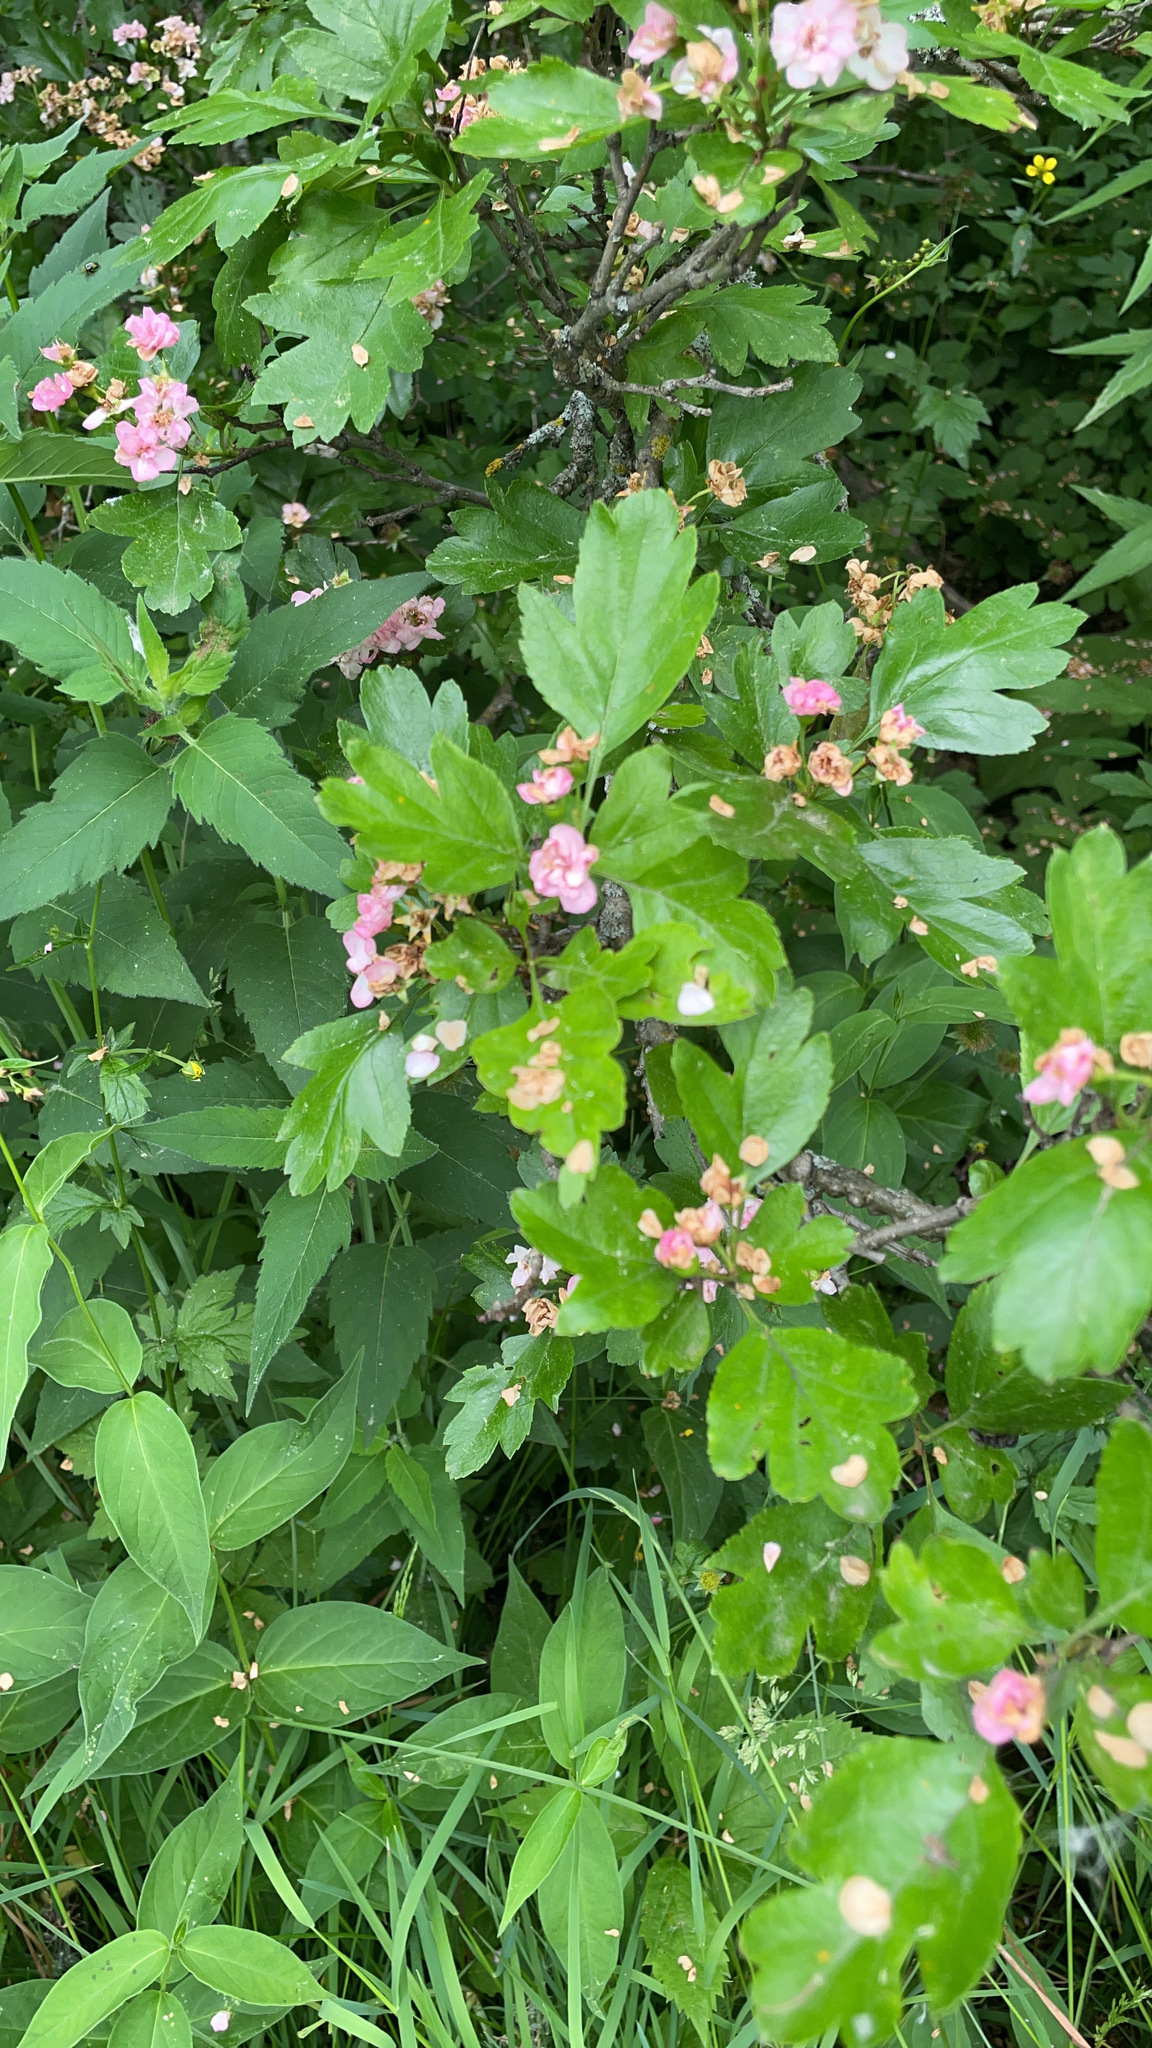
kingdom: Plantae
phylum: Tracheophyta
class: Magnoliopsida
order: Rosales
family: Rosaceae
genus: Crataegus
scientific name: Crataegus monogyna
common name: Hawthorn
